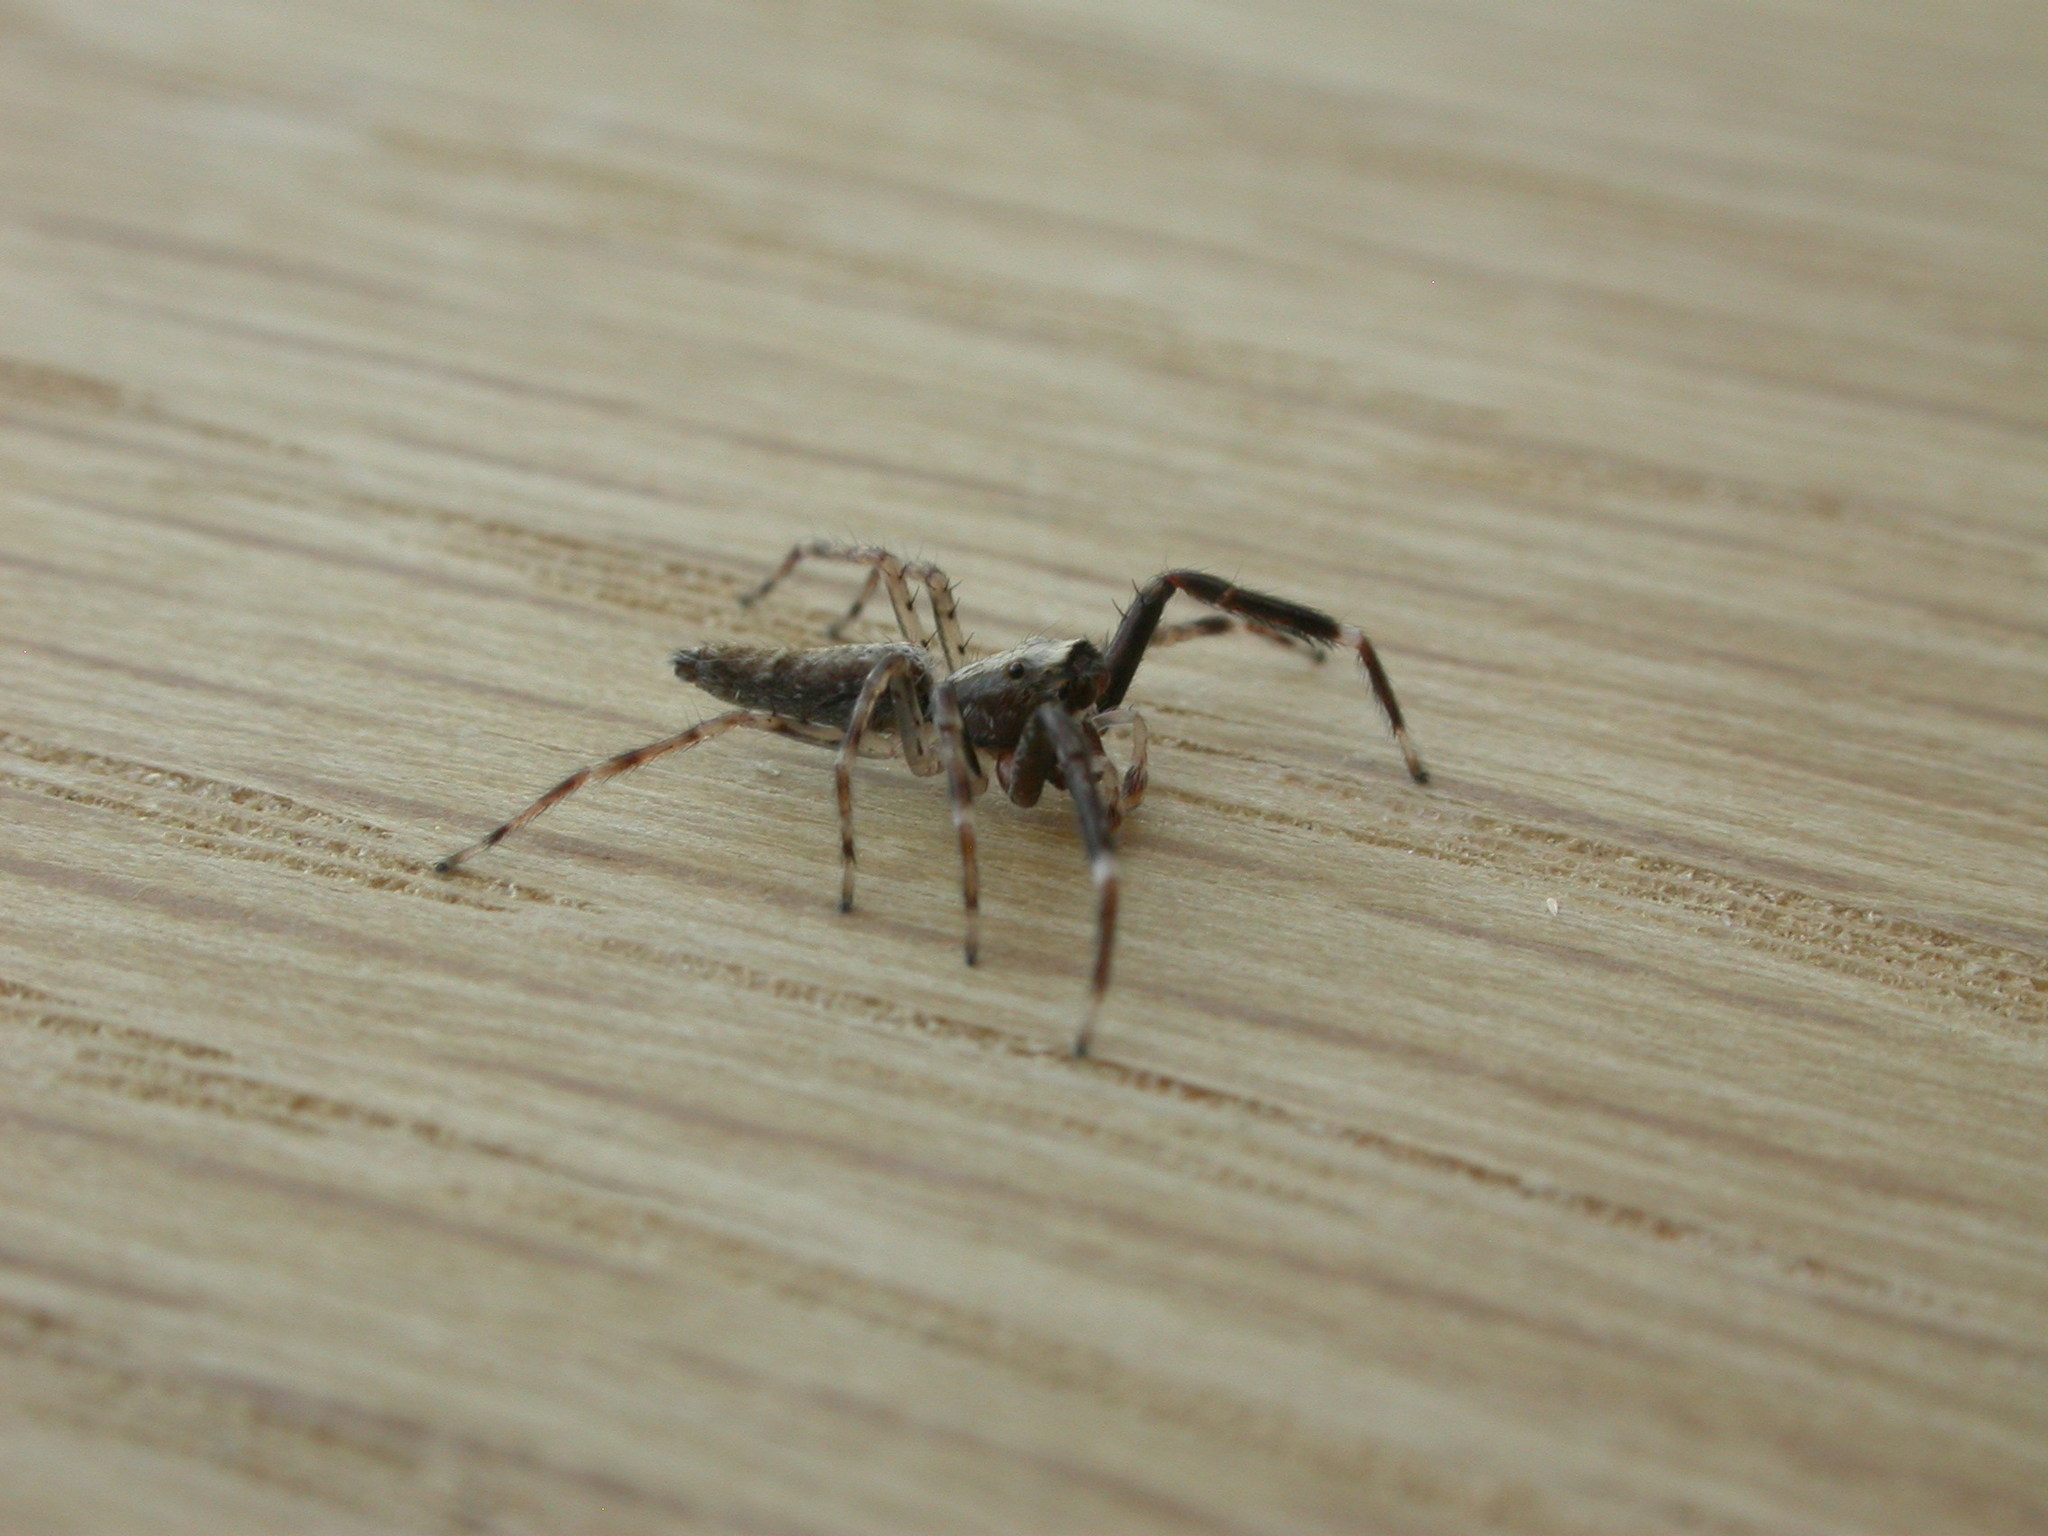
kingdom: Animalia
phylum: Arthropoda
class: Arachnida
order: Araneae
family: Salticidae
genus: Helpis
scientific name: Helpis minitabunda
